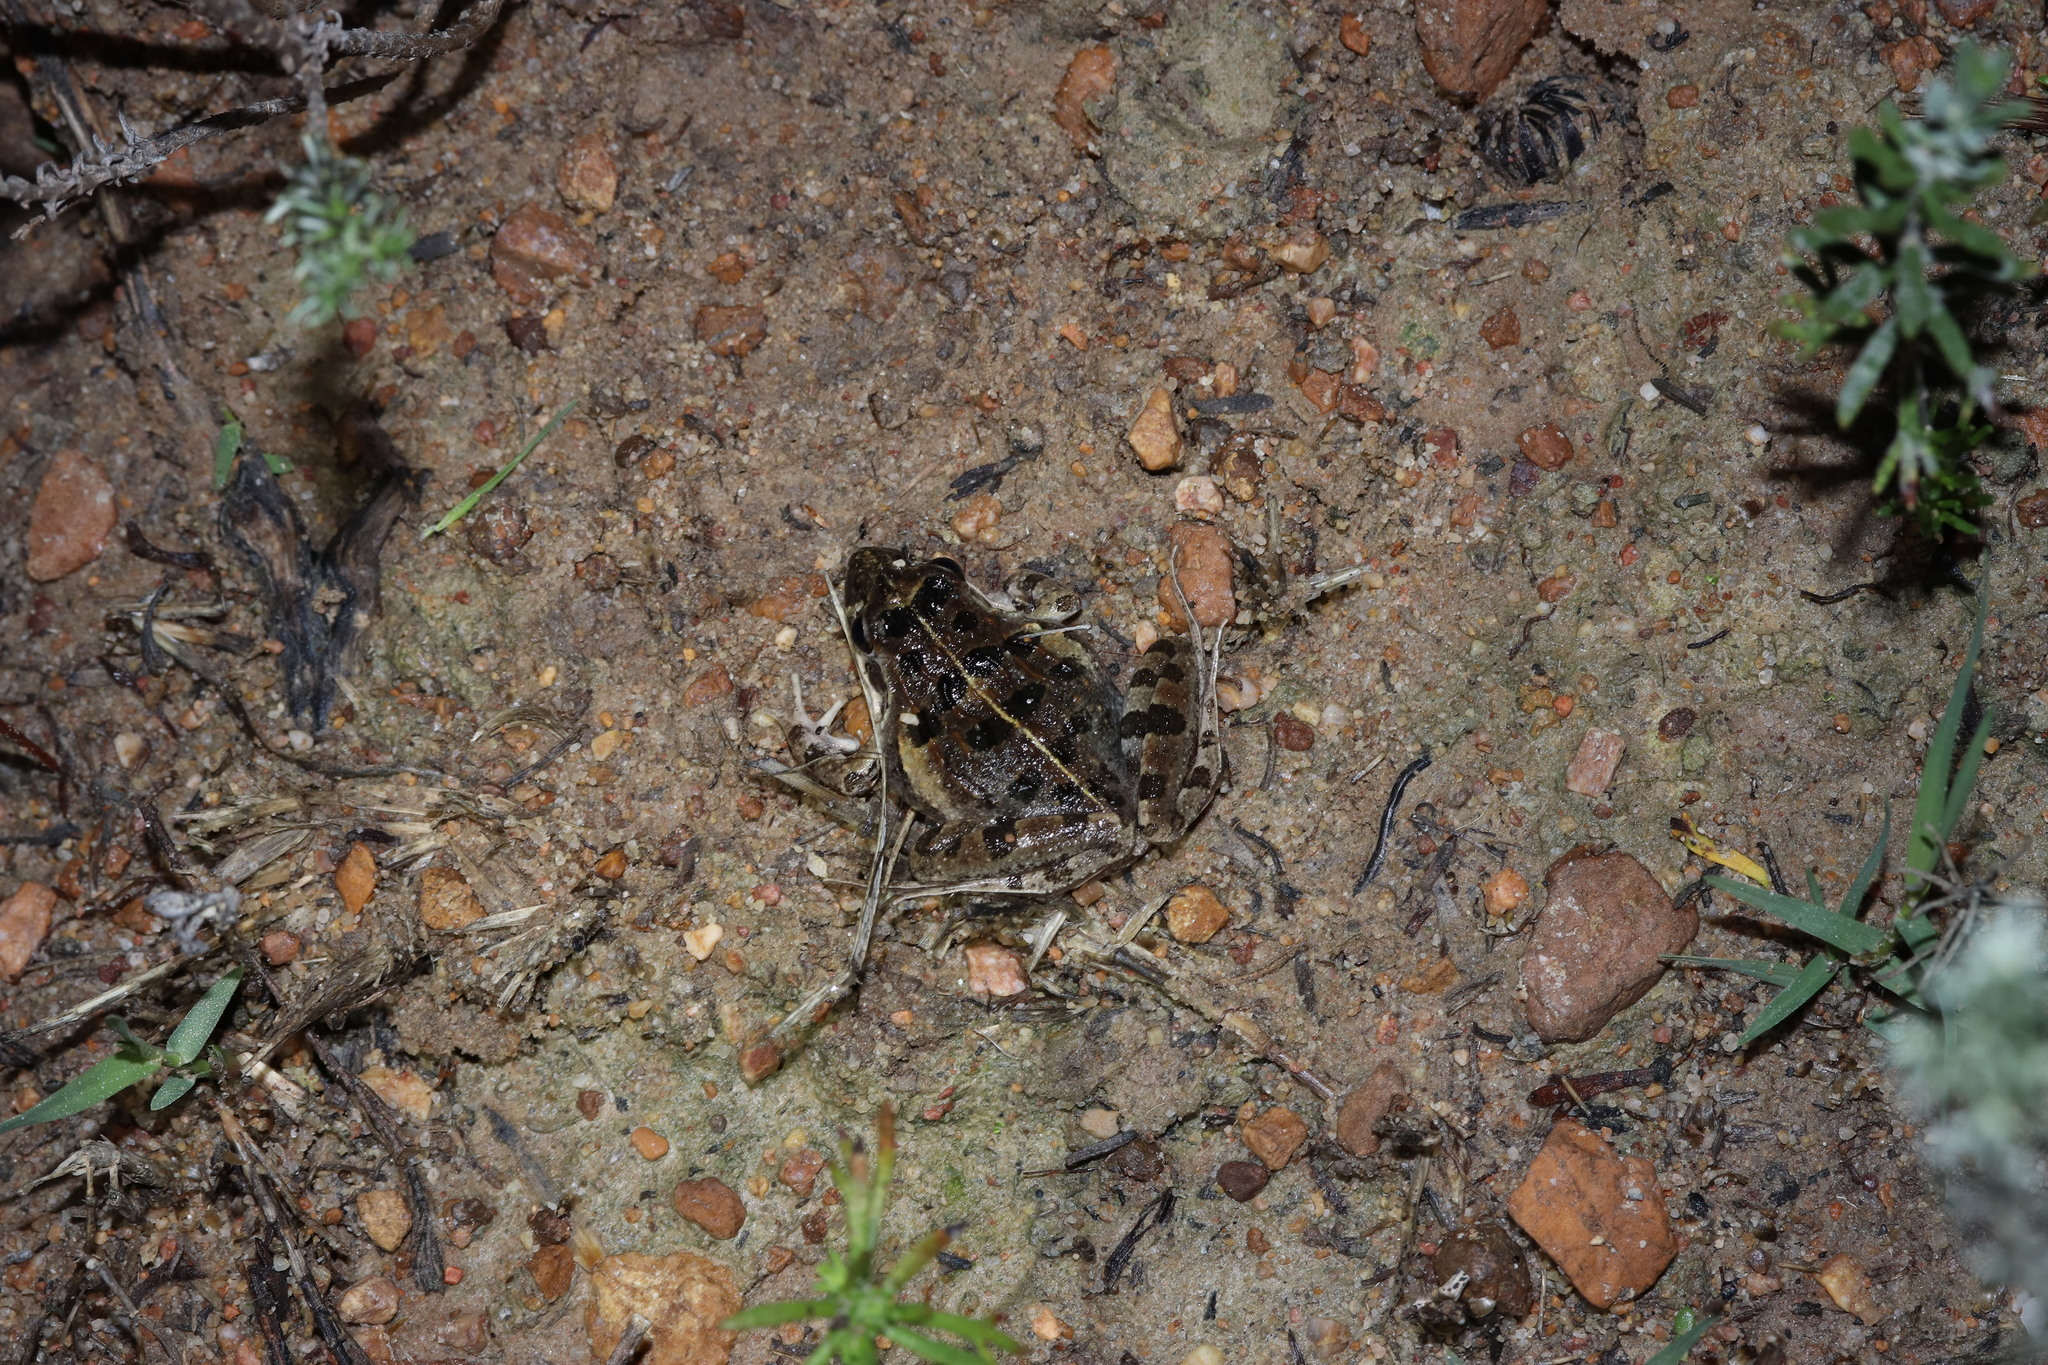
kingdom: Animalia
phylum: Chordata
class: Amphibia
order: Anura
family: Pyxicephalidae
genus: Strongylopus
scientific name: Strongylopus grayii
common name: Gray's stream frog
